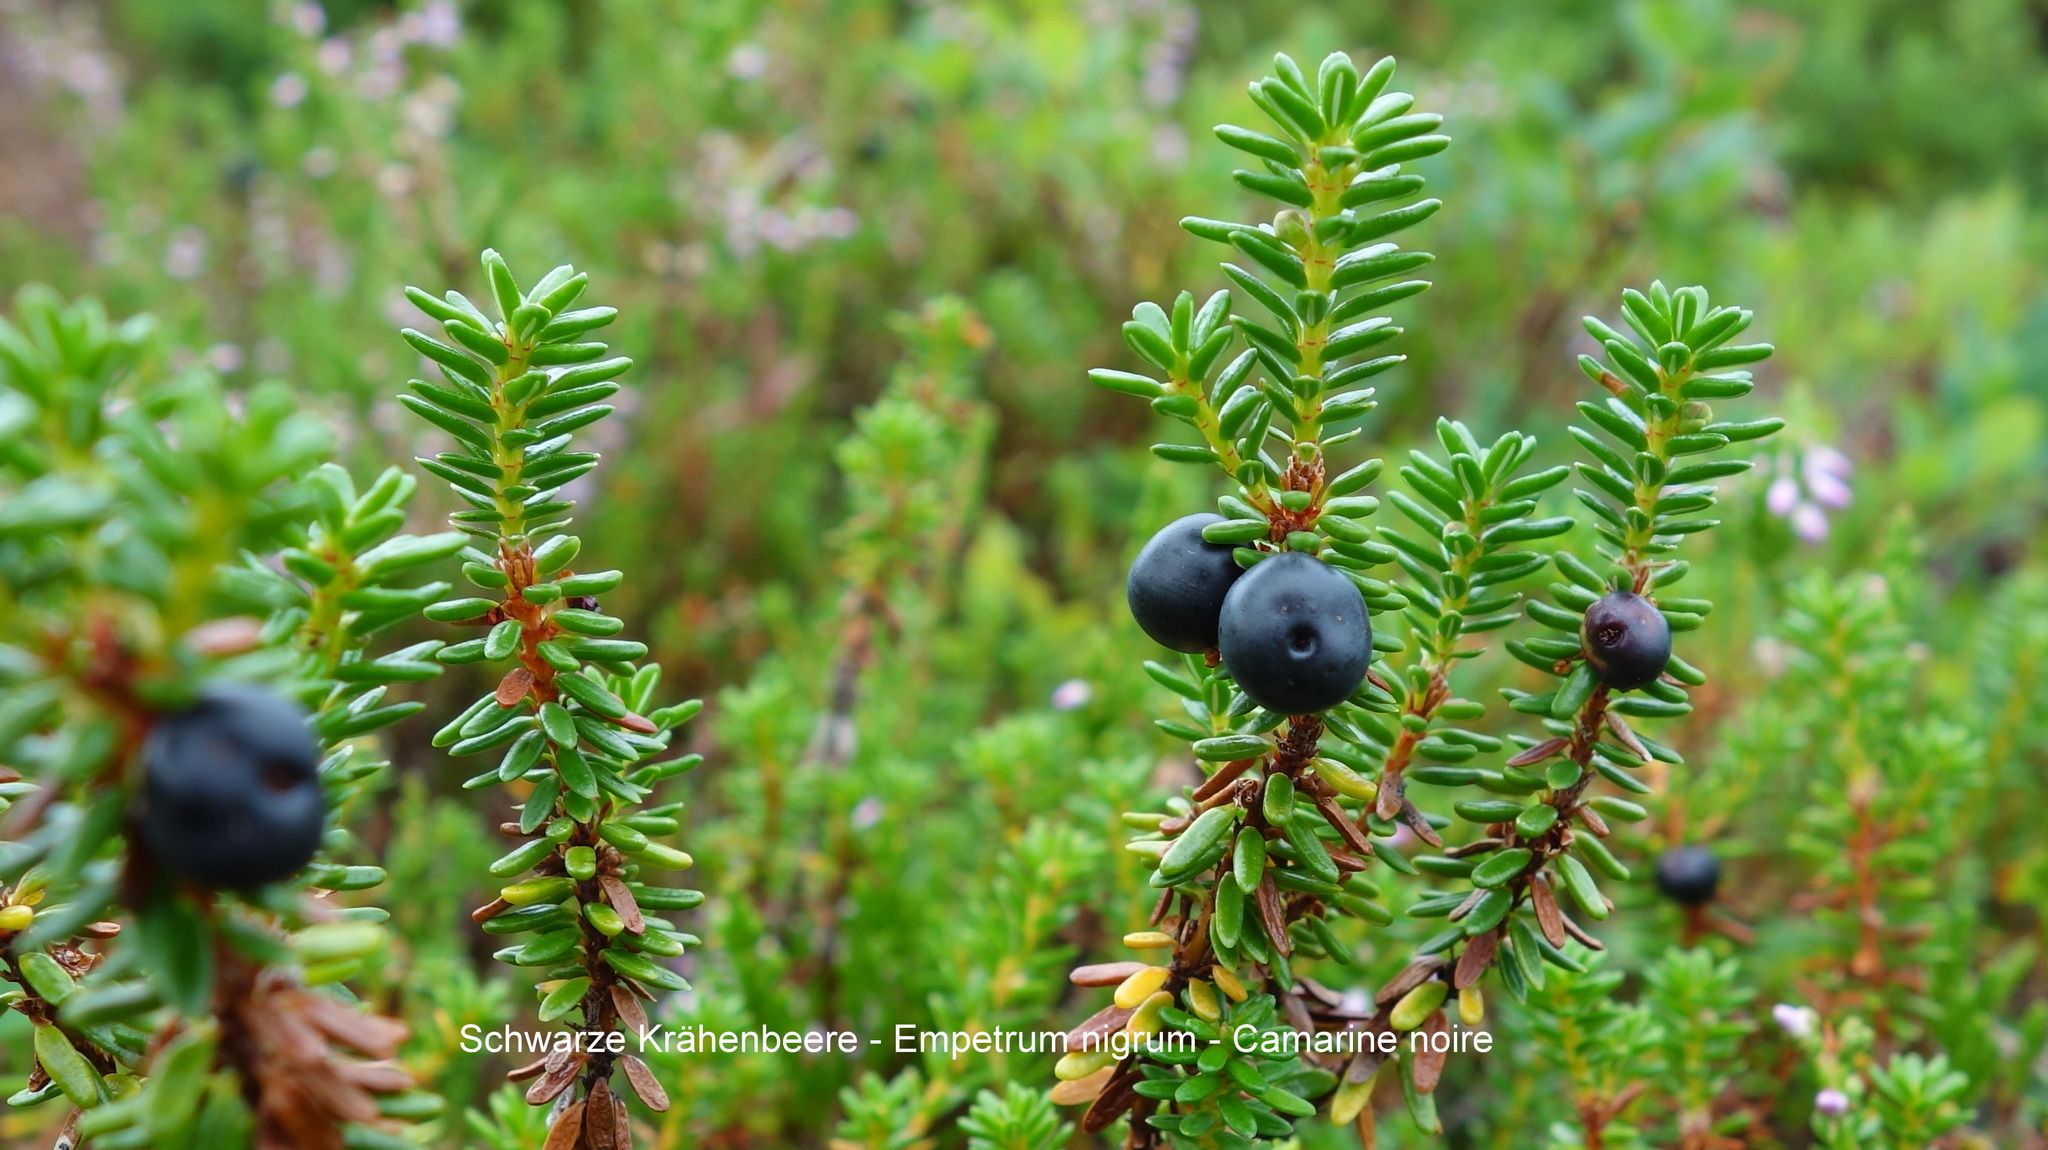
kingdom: Plantae
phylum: Tracheophyta
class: Magnoliopsida
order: Ericales
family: Ericaceae
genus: Empetrum
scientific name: Empetrum nigrum
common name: Black crowberry
